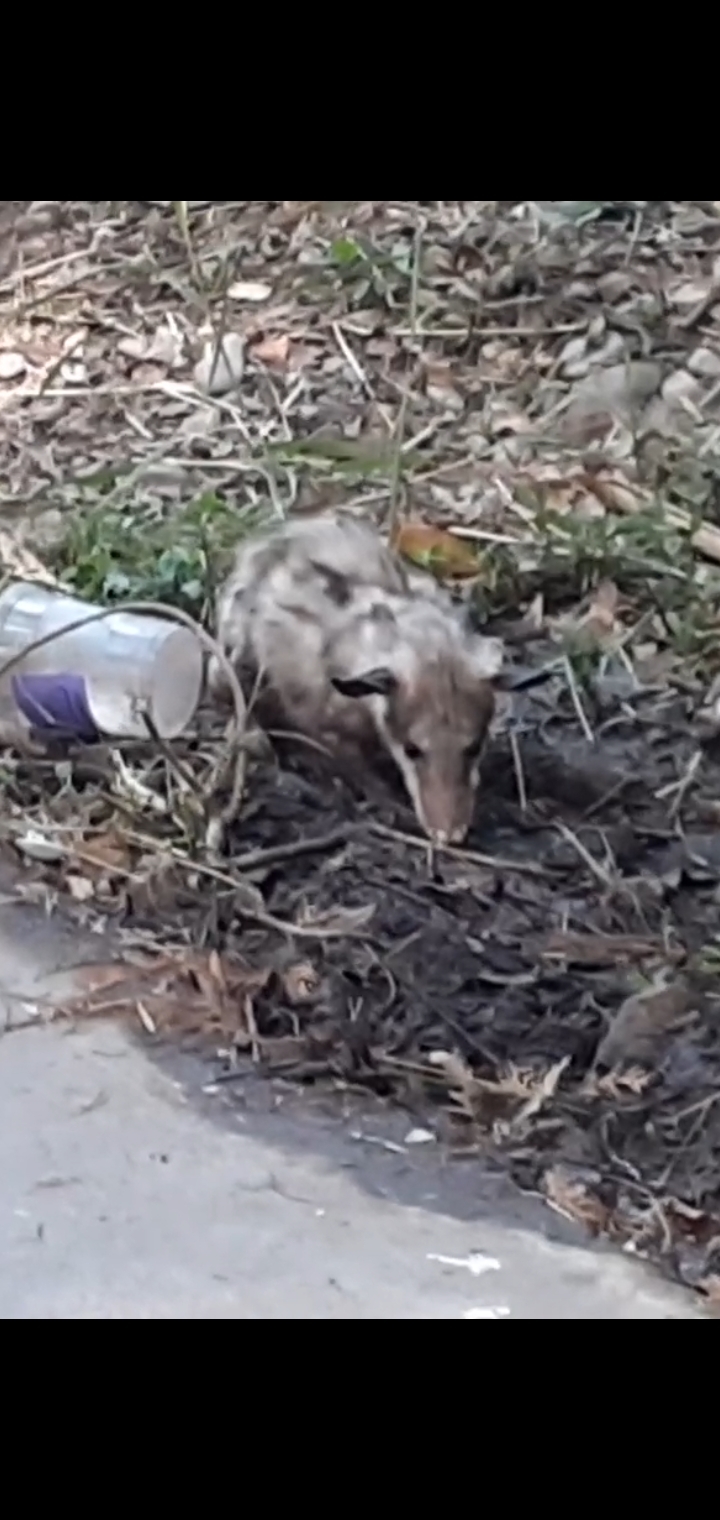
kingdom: Animalia
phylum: Chordata
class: Mammalia
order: Didelphimorphia
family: Didelphidae
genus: Didelphis
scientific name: Didelphis virginiana
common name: Virginia opossum
